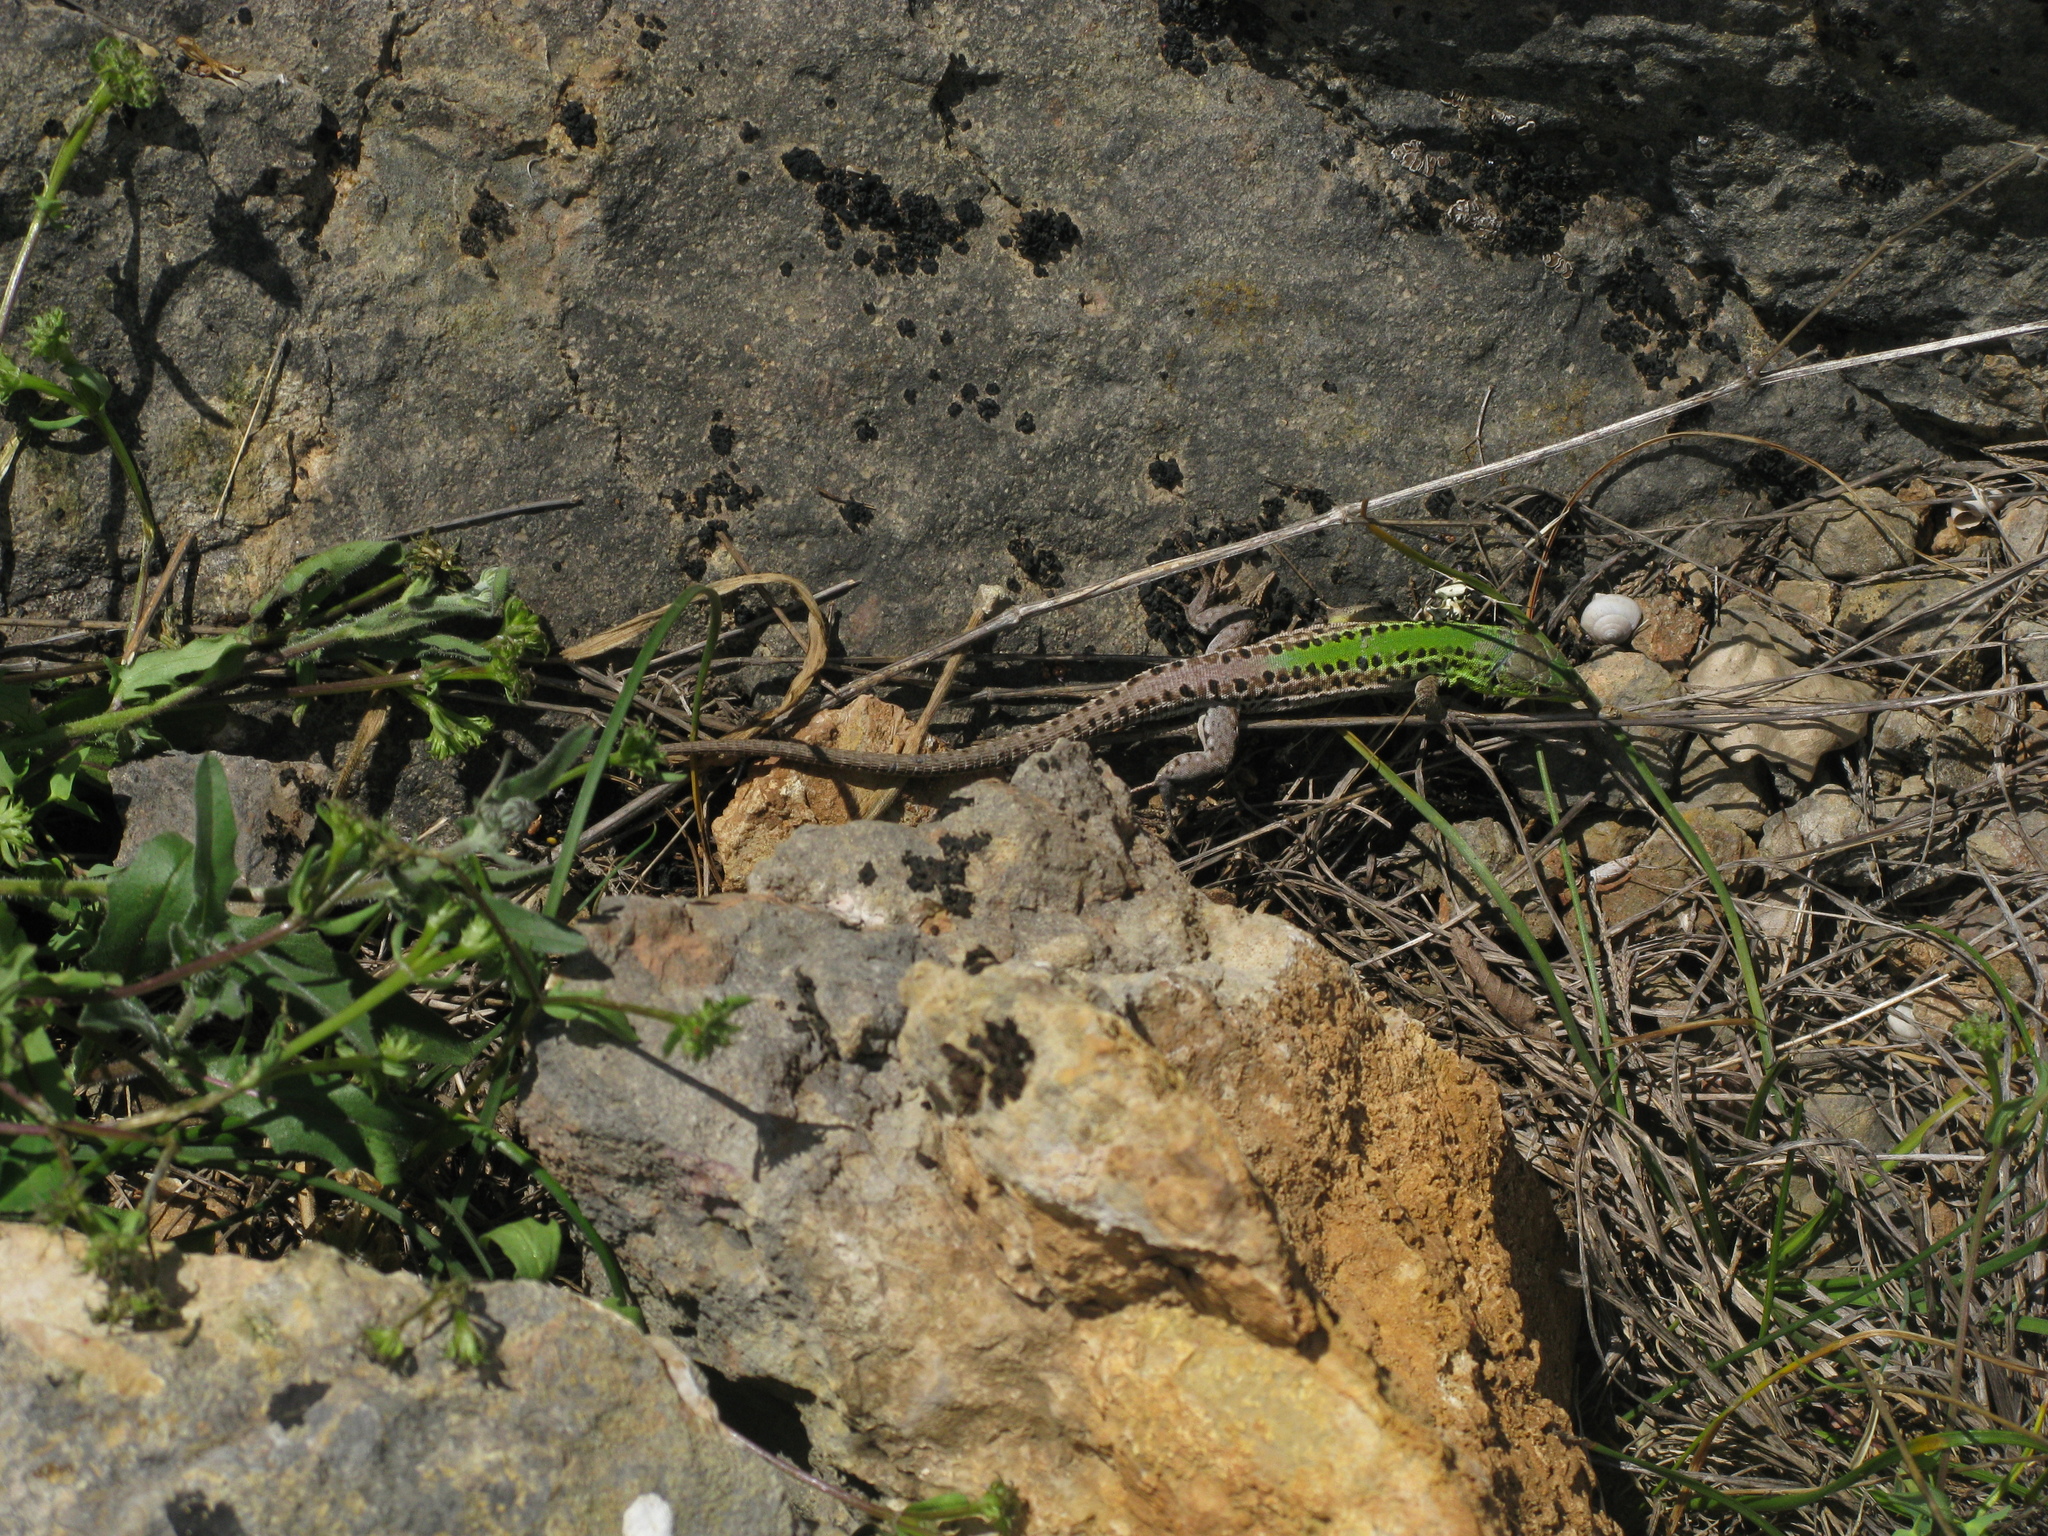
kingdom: Animalia
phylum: Chordata
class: Squamata
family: Lacertidae
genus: Podarcis
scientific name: Podarcis tauricus
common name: Balkan wall lizard
